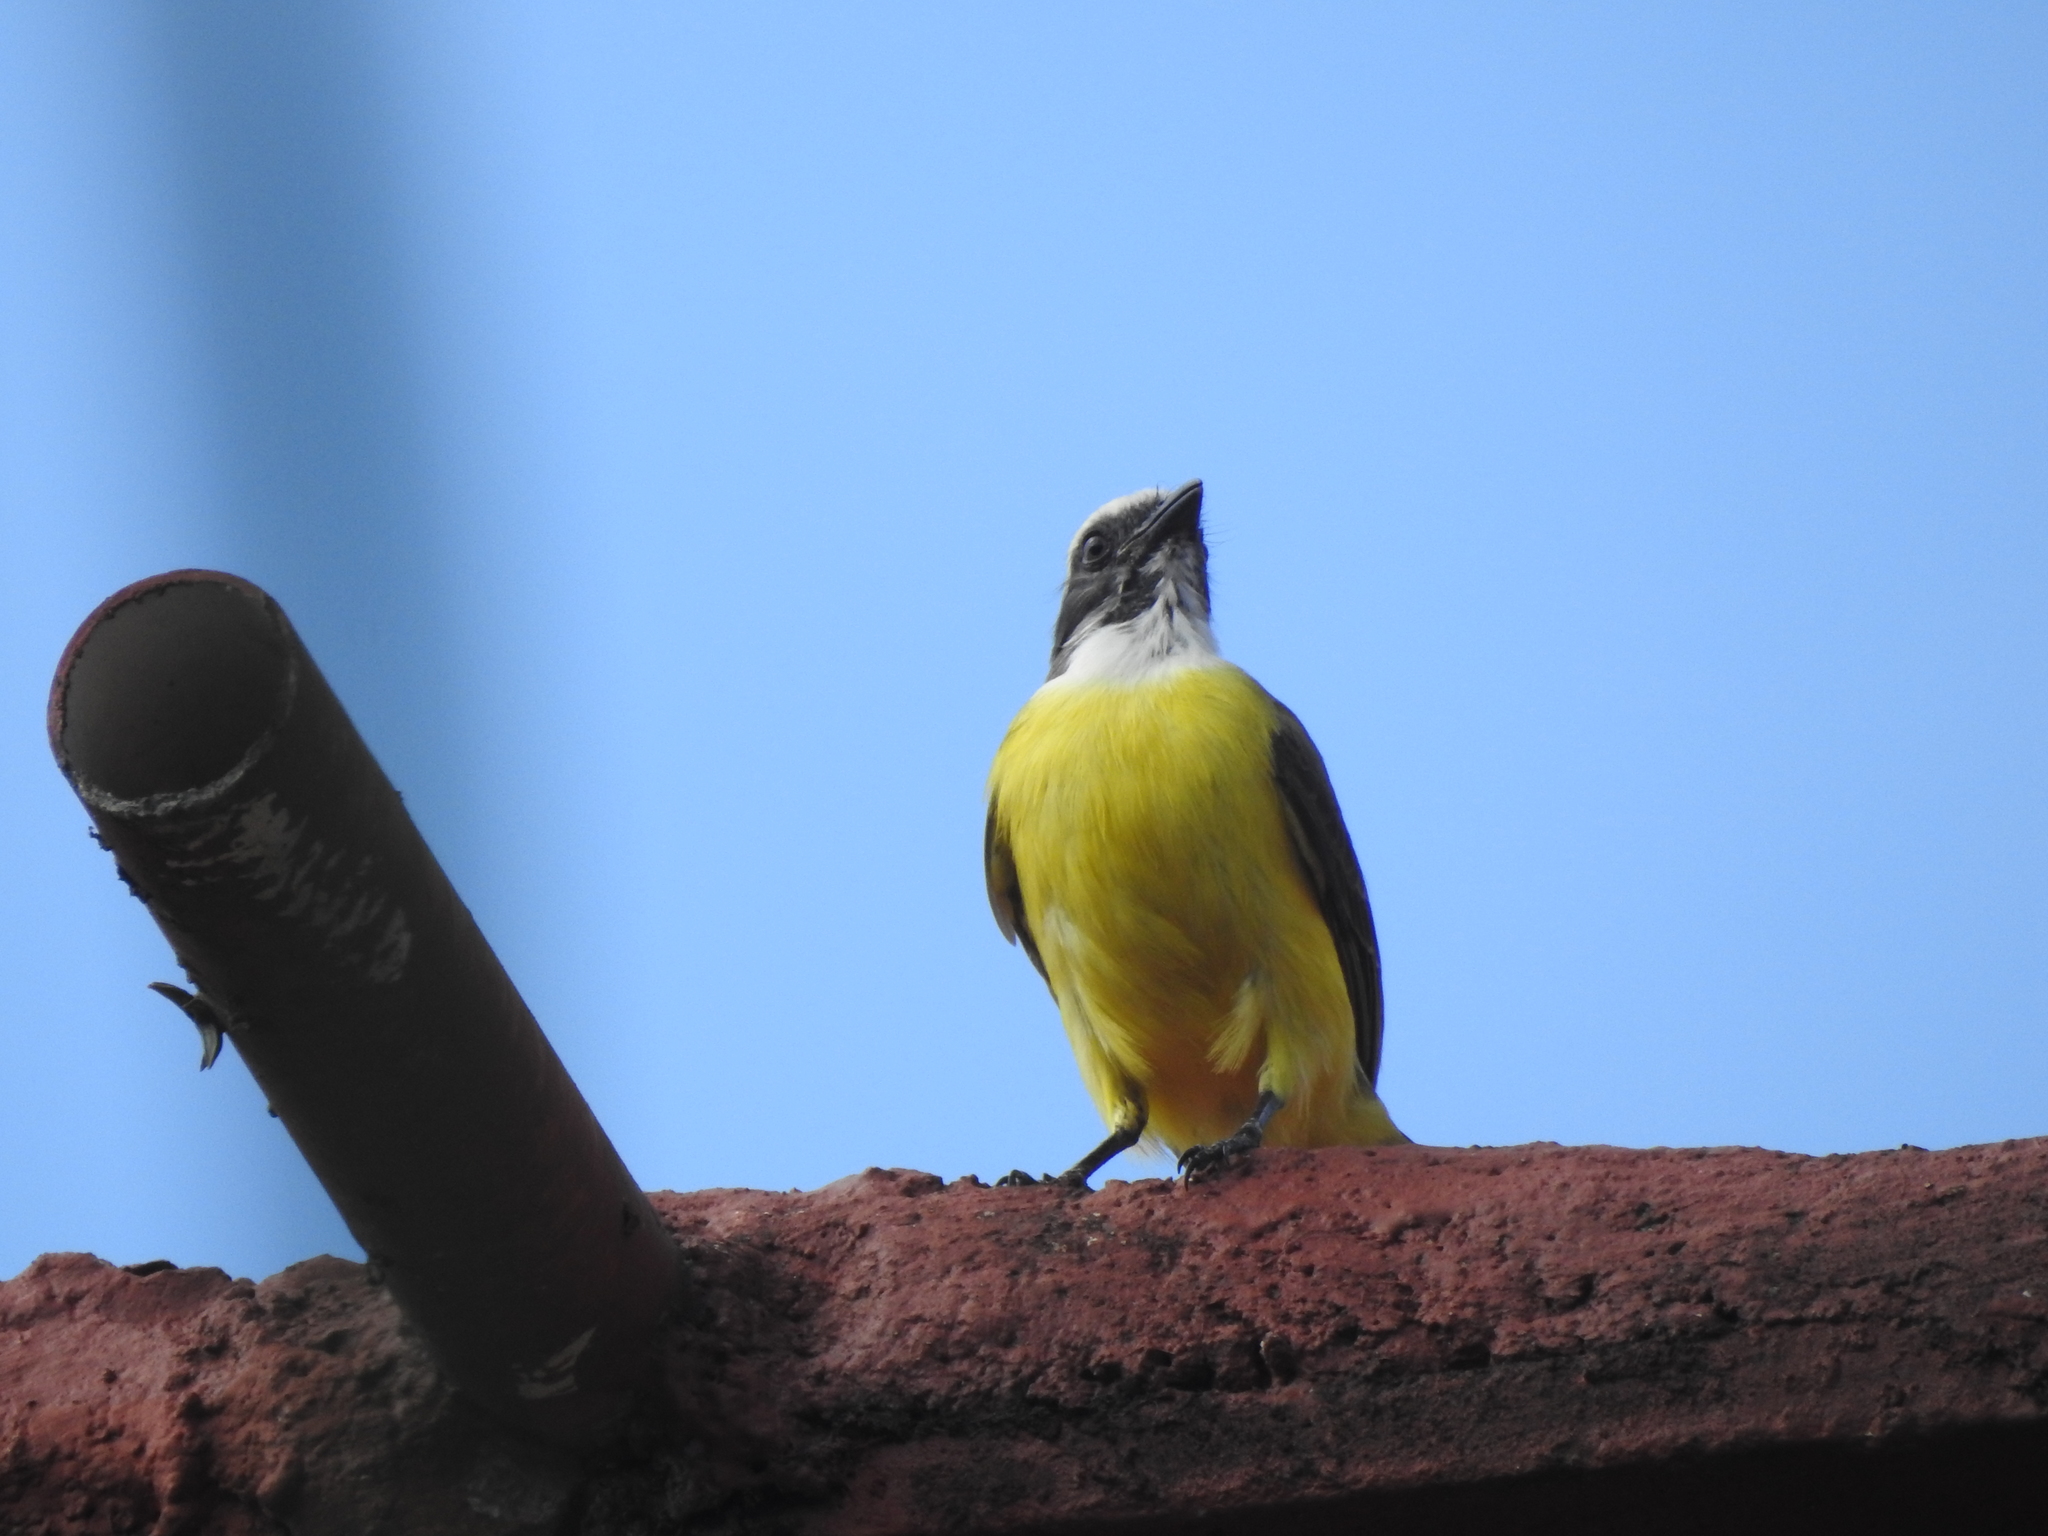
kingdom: Animalia
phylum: Chordata
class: Aves
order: Passeriformes
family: Tyrannidae
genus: Myiozetetes
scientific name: Myiozetetes similis
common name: Social flycatcher
